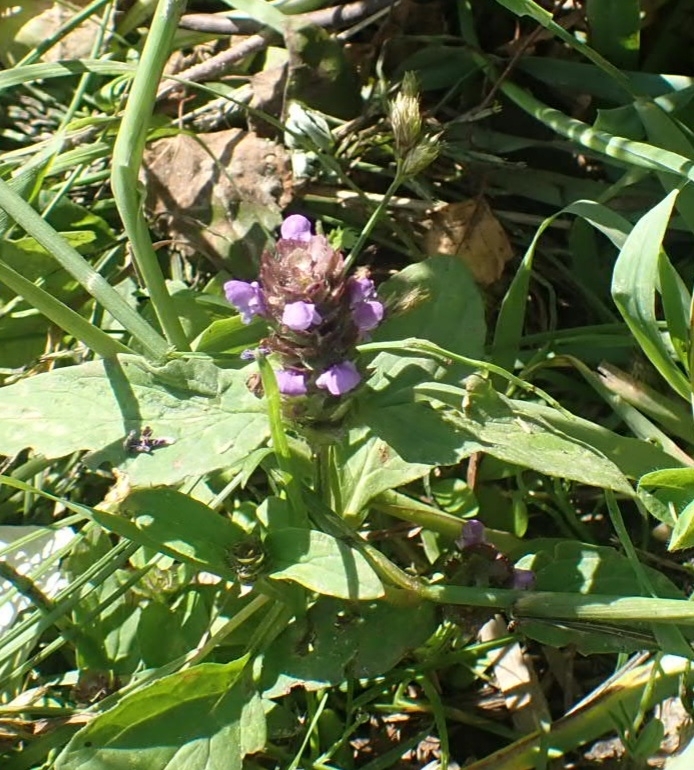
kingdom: Plantae
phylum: Tracheophyta
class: Magnoliopsida
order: Lamiales
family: Lamiaceae
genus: Prunella
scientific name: Prunella vulgaris
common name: Heal-all
